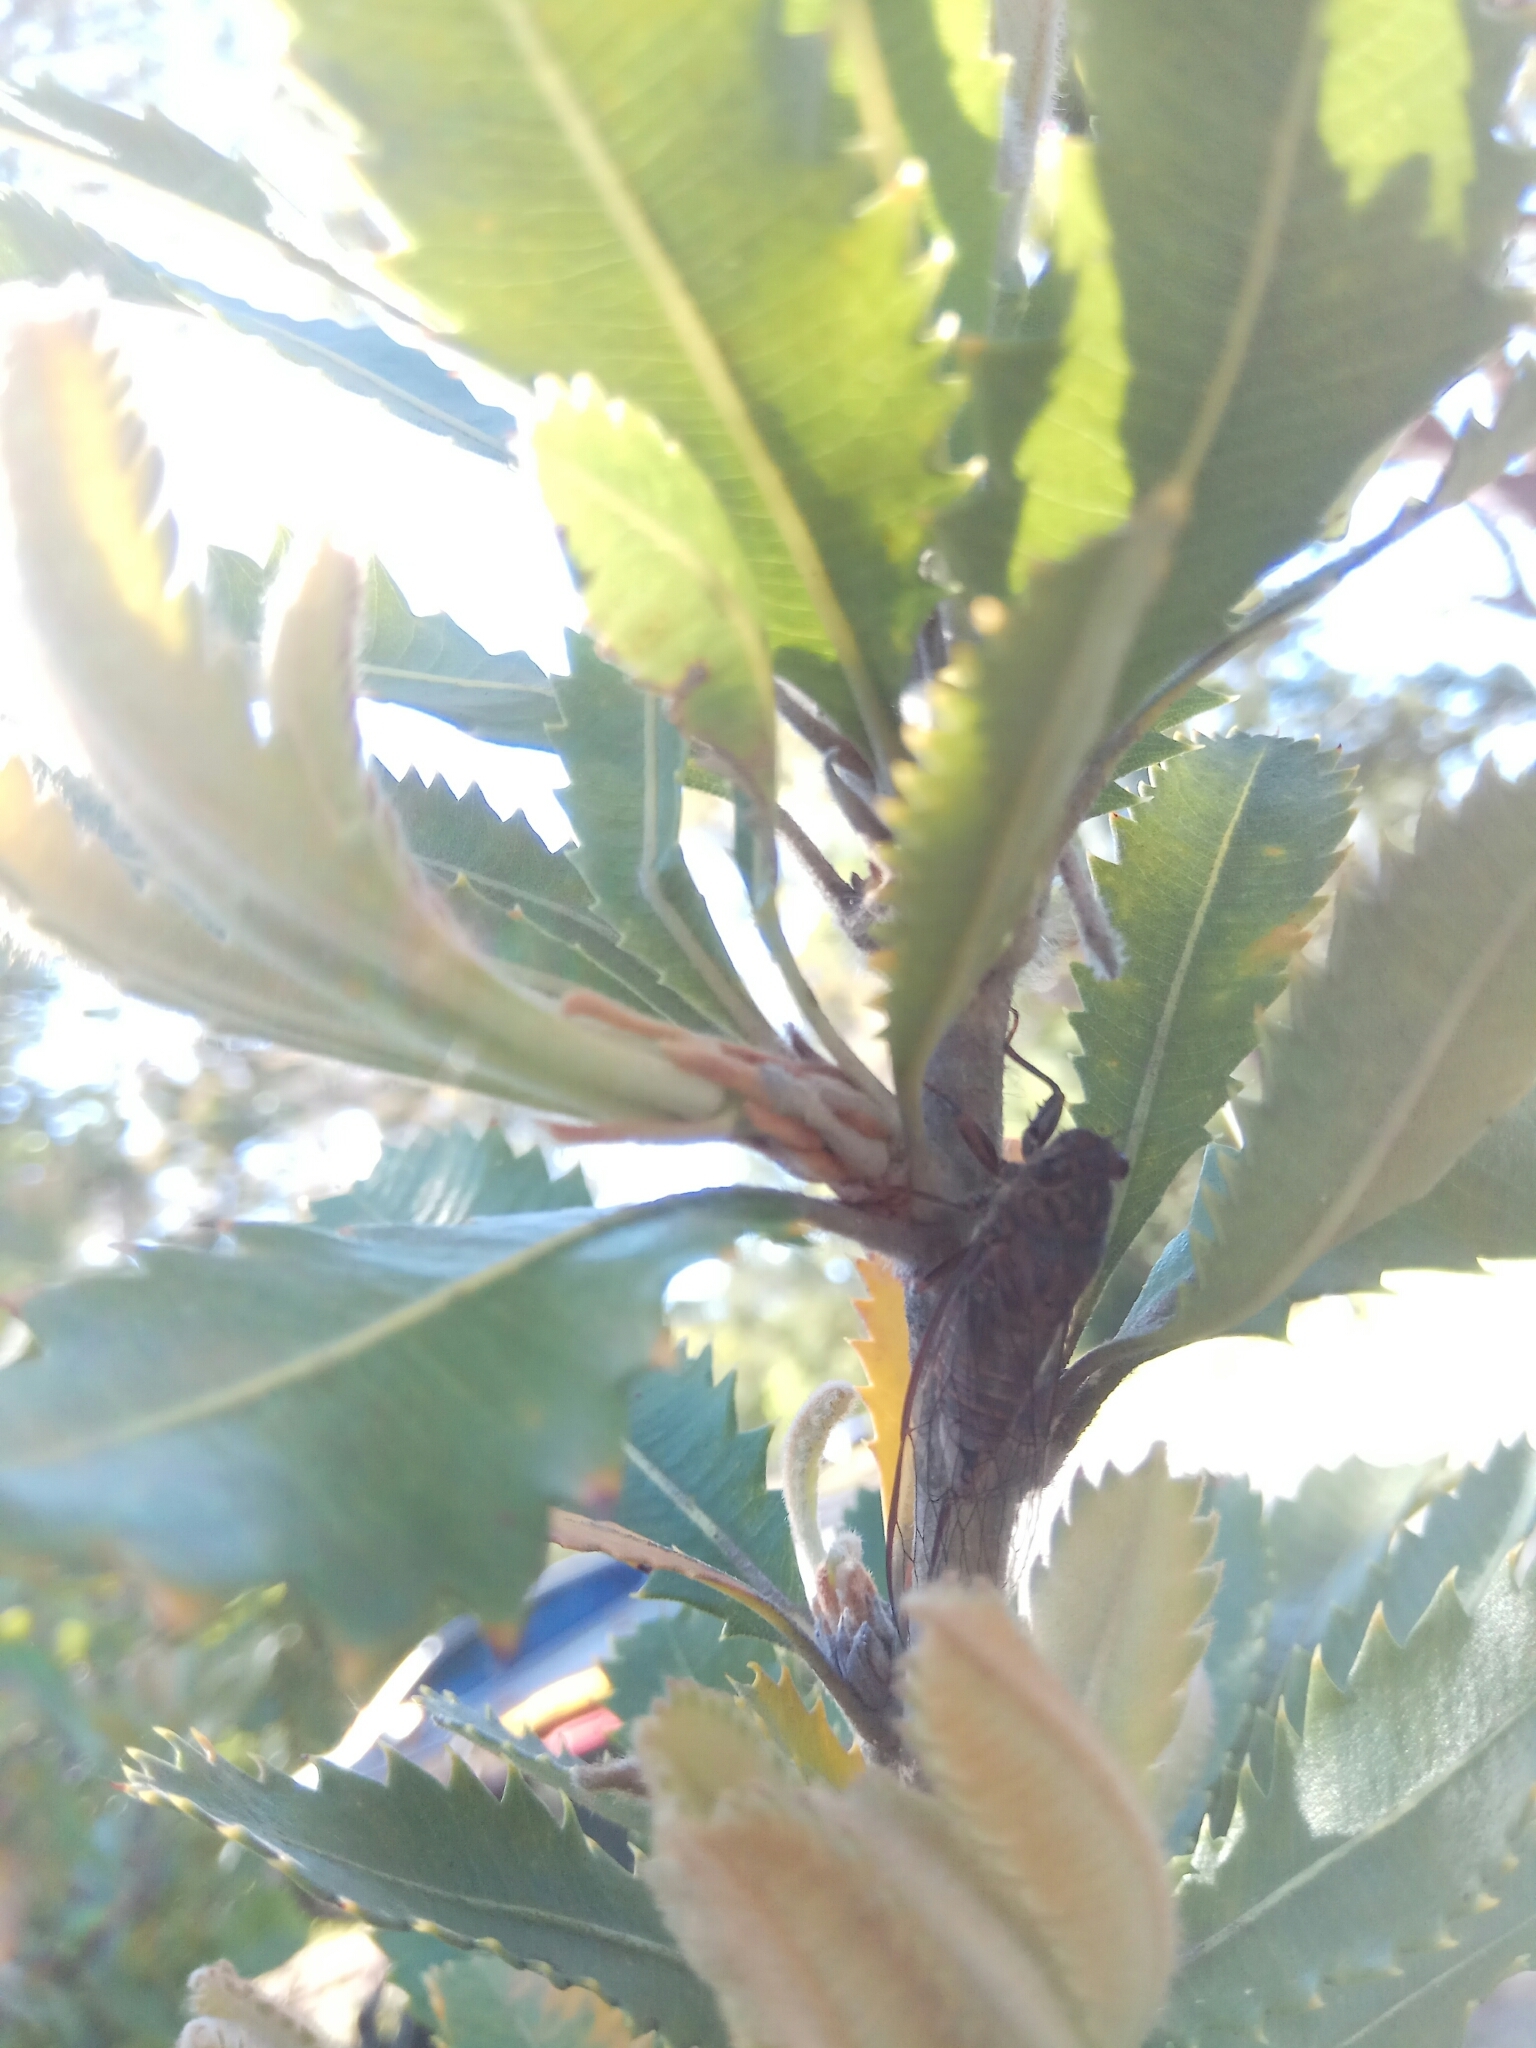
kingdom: Animalia
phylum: Arthropoda
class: Insecta
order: Hemiptera
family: Cicadidae
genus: Yoyetta
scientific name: Yoyetta celis
